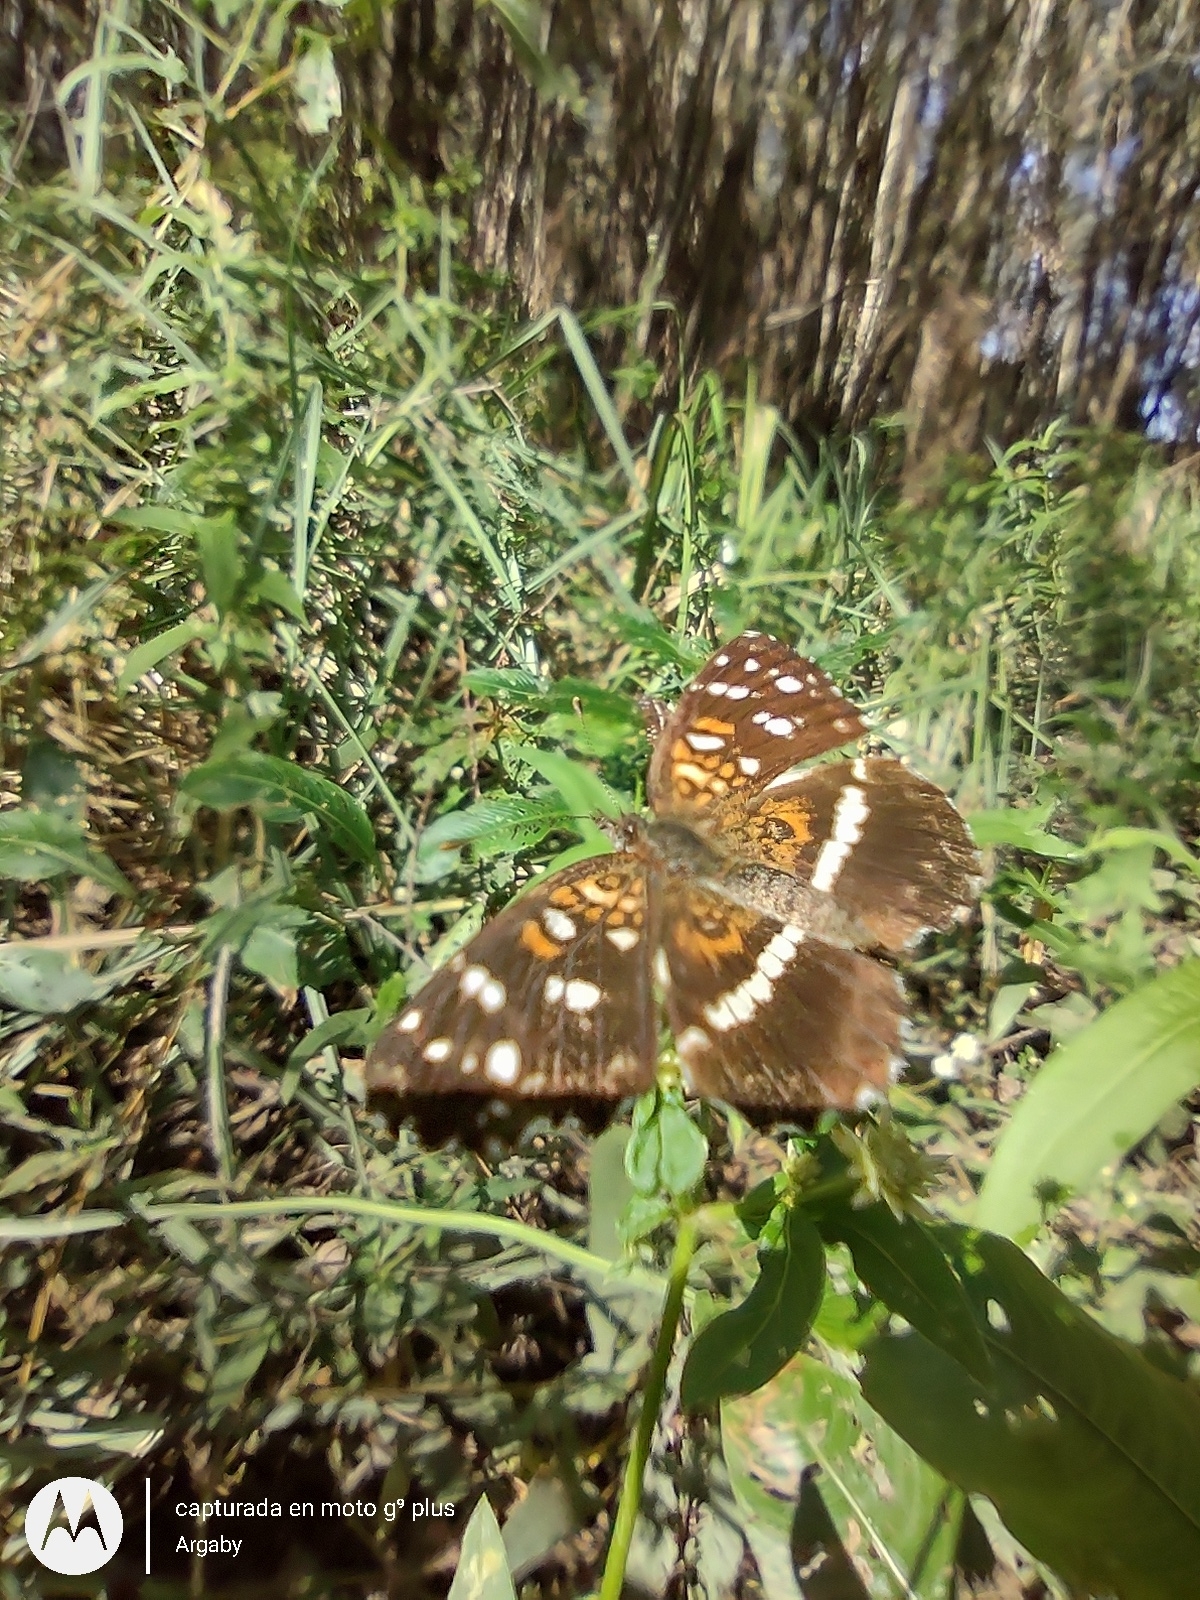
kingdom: Animalia
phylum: Arthropoda
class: Insecta
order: Lepidoptera
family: Nymphalidae
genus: Ortilia
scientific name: Ortilia ithra
